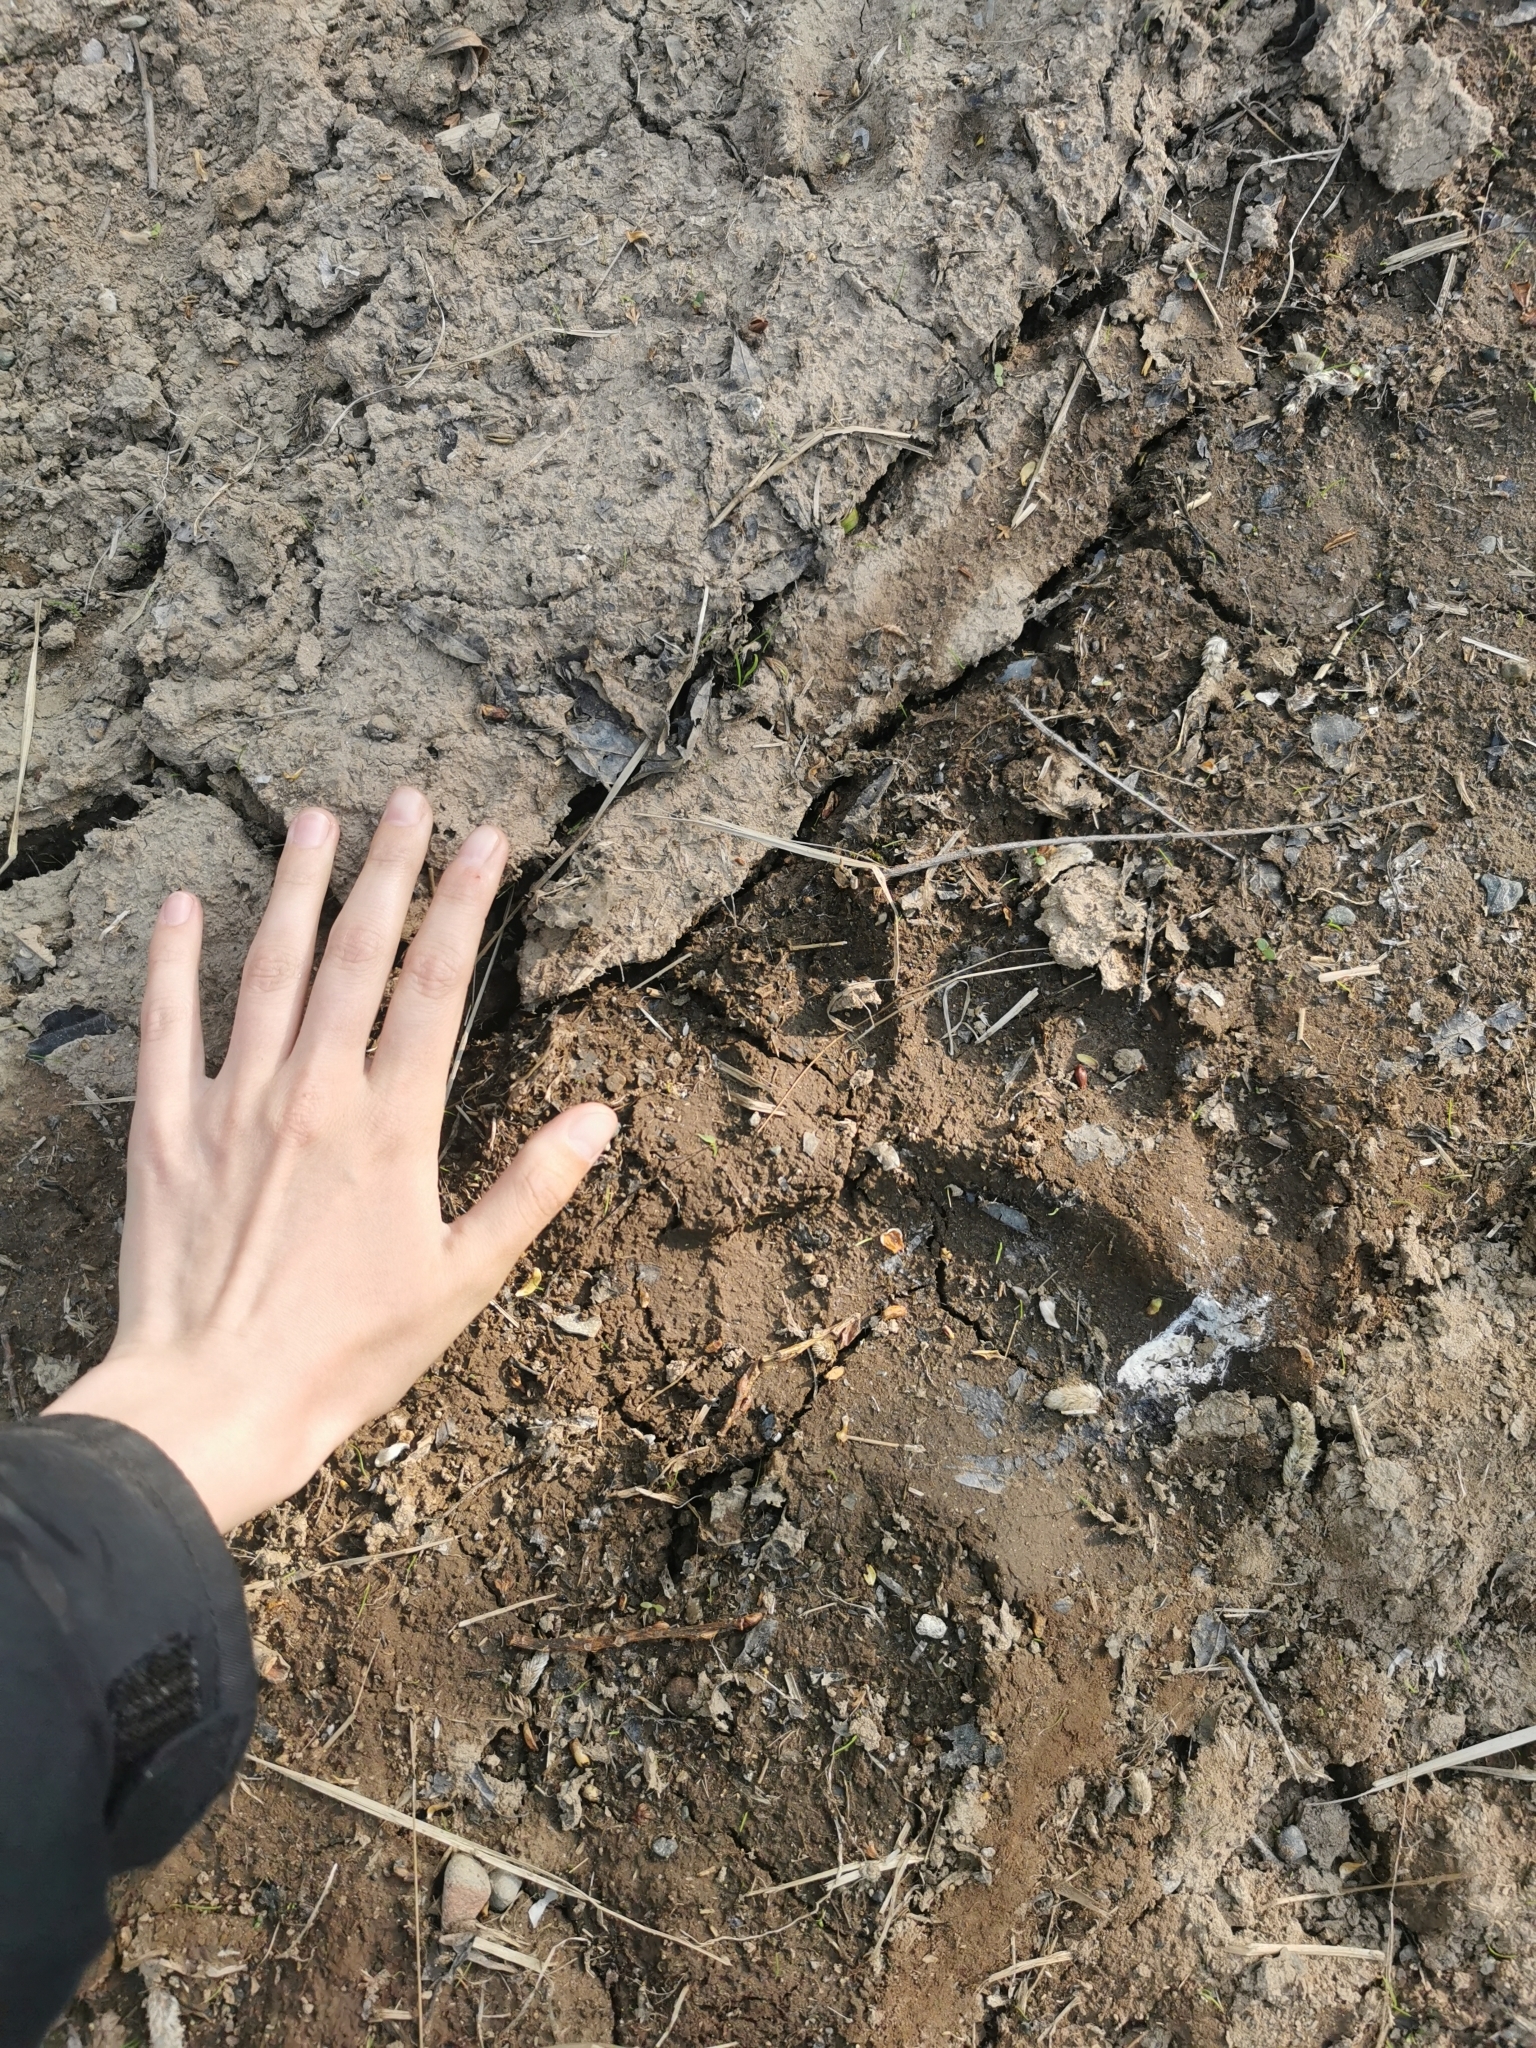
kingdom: Animalia
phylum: Chordata
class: Mammalia
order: Carnivora
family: Ursidae
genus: Ursus
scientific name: Ursus arctos
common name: Brown bear
